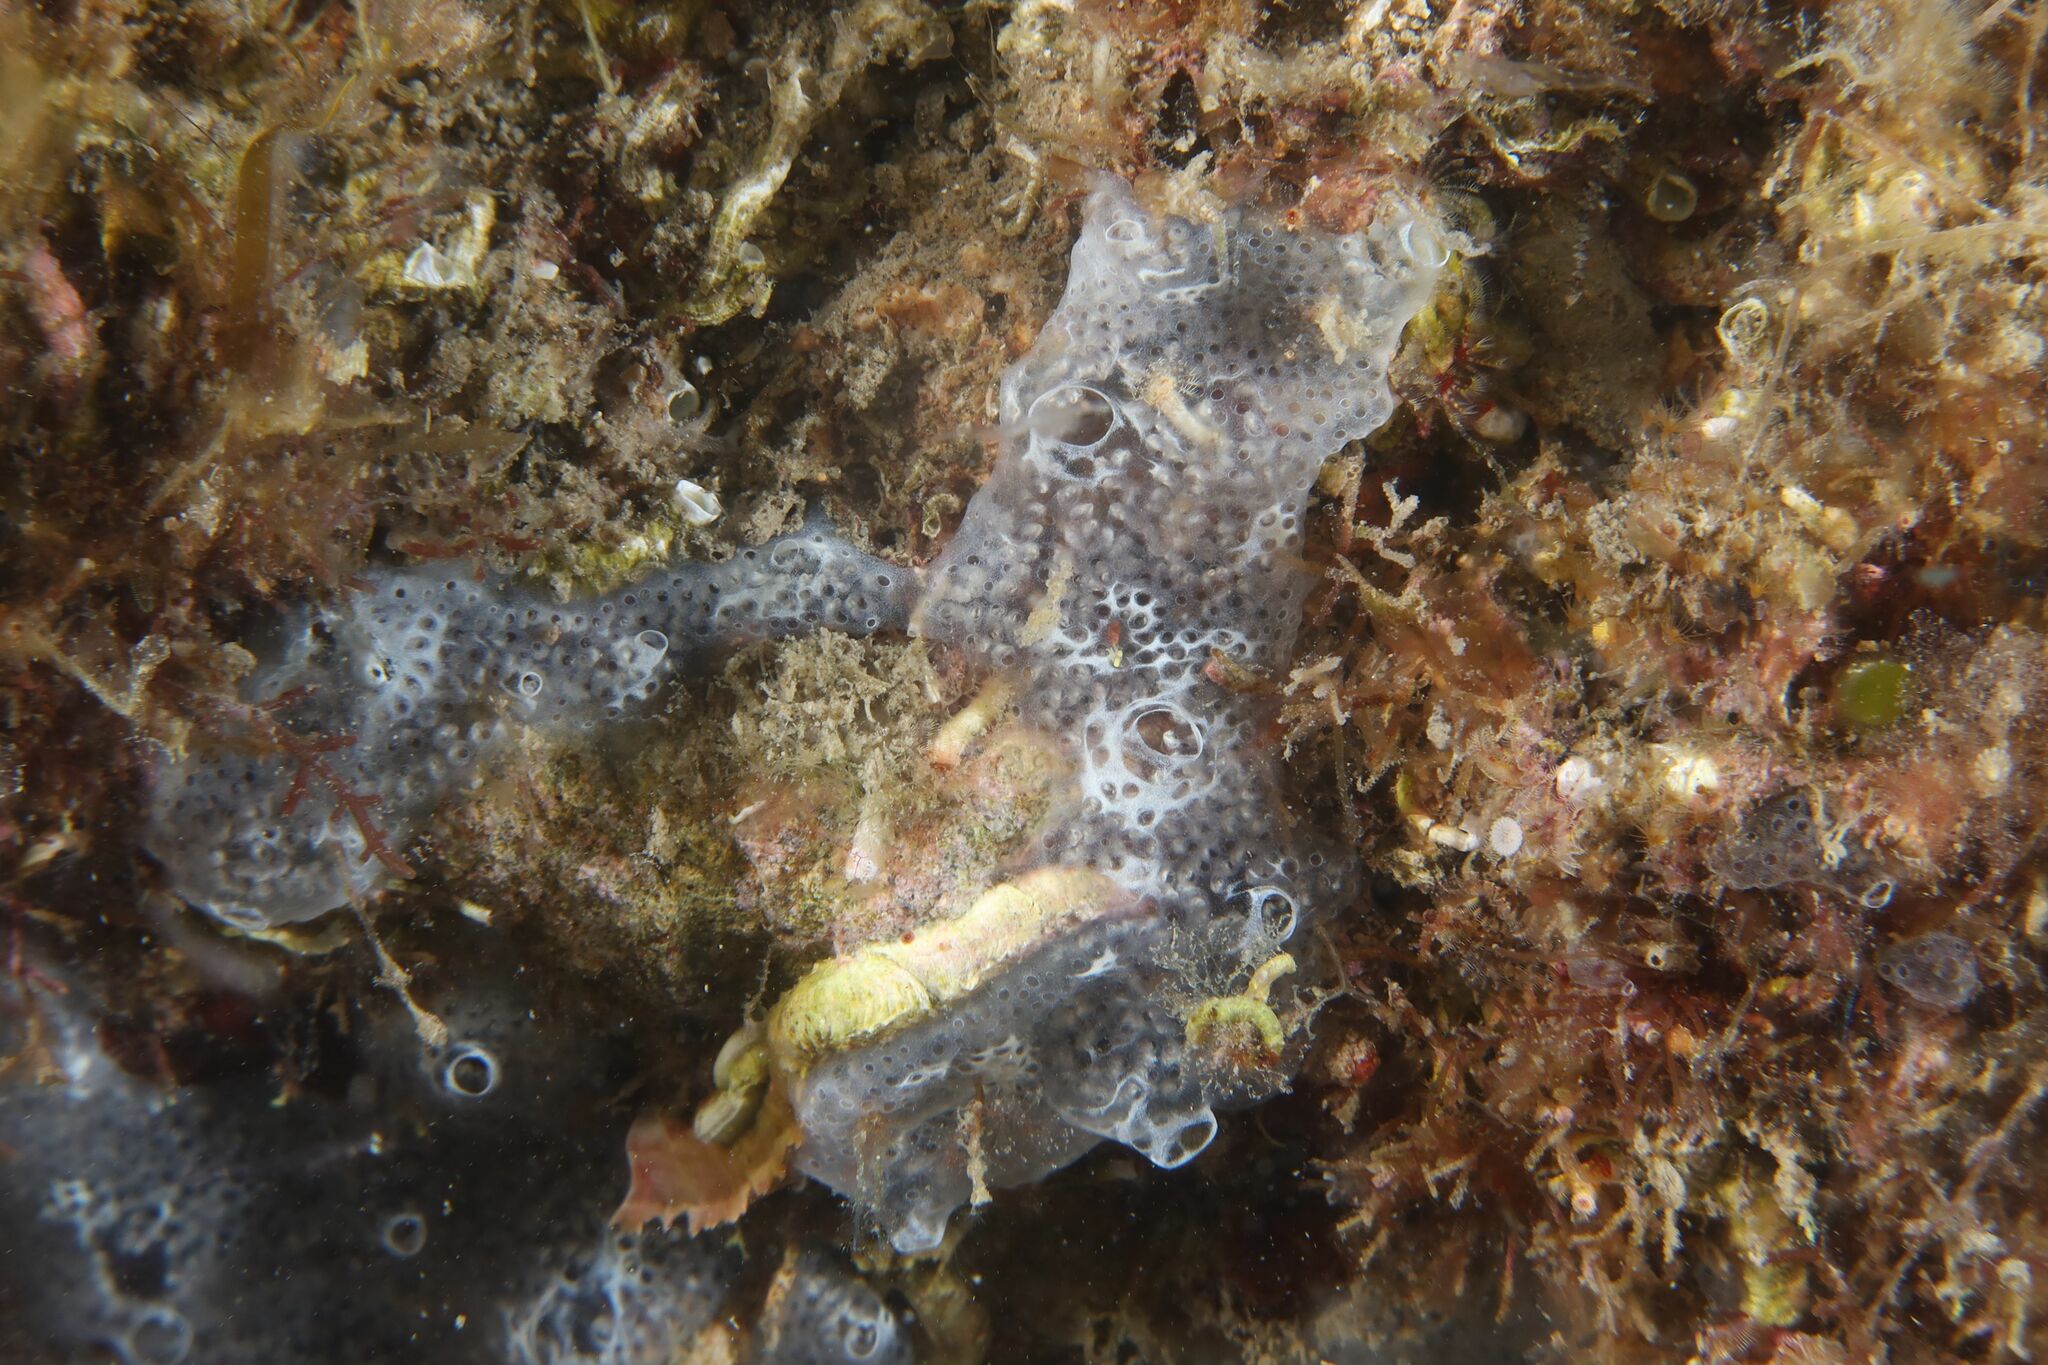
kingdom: Animalia
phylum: Chordata
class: Ascidiacea
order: Aplousobranchia
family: Didemnidae
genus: Diplosoma
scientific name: Diplosoma spongiforme
